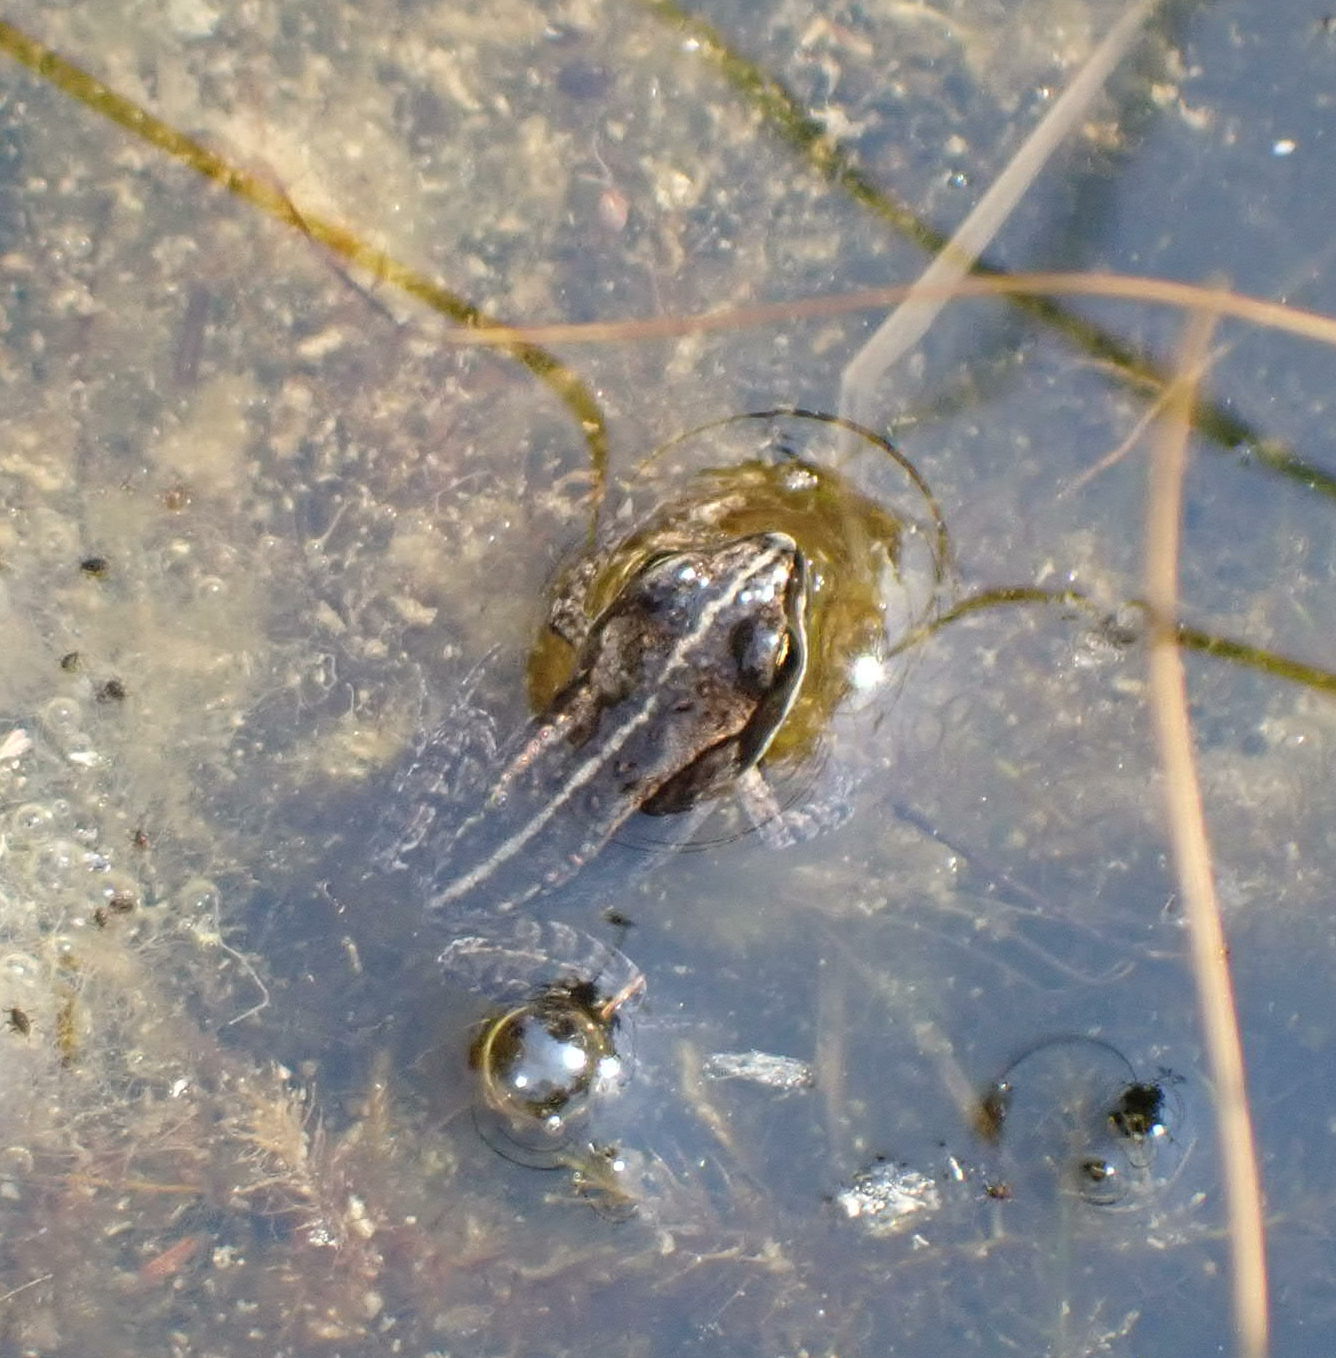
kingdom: Animalia
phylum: Chordata
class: Amphibia
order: Anura
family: Ranidae
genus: Lithobates
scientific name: Lithobates sylvaticus
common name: Wood frog
